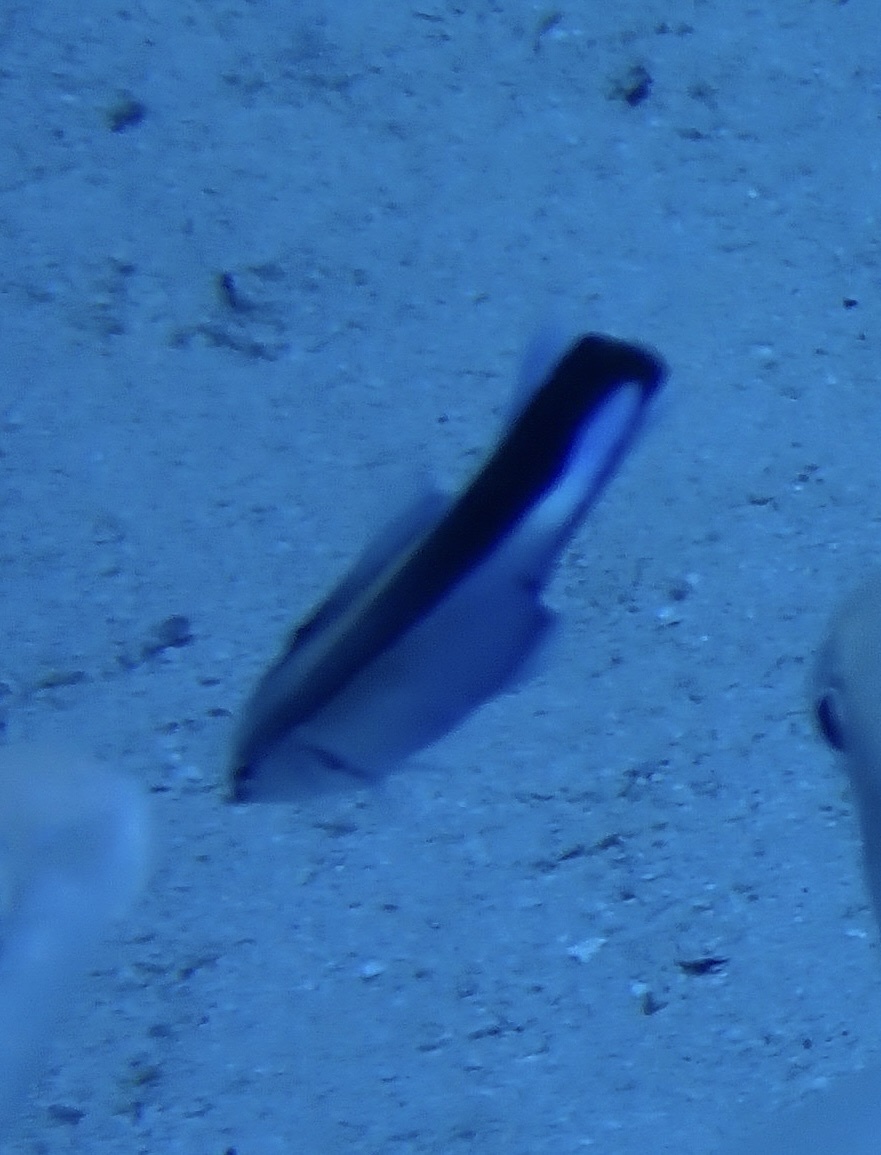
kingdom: Animalia
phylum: Chordata
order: Perciformes
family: Labridae
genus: Labroides
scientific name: Labroides dimidiatus
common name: Blue diesel wrasse
